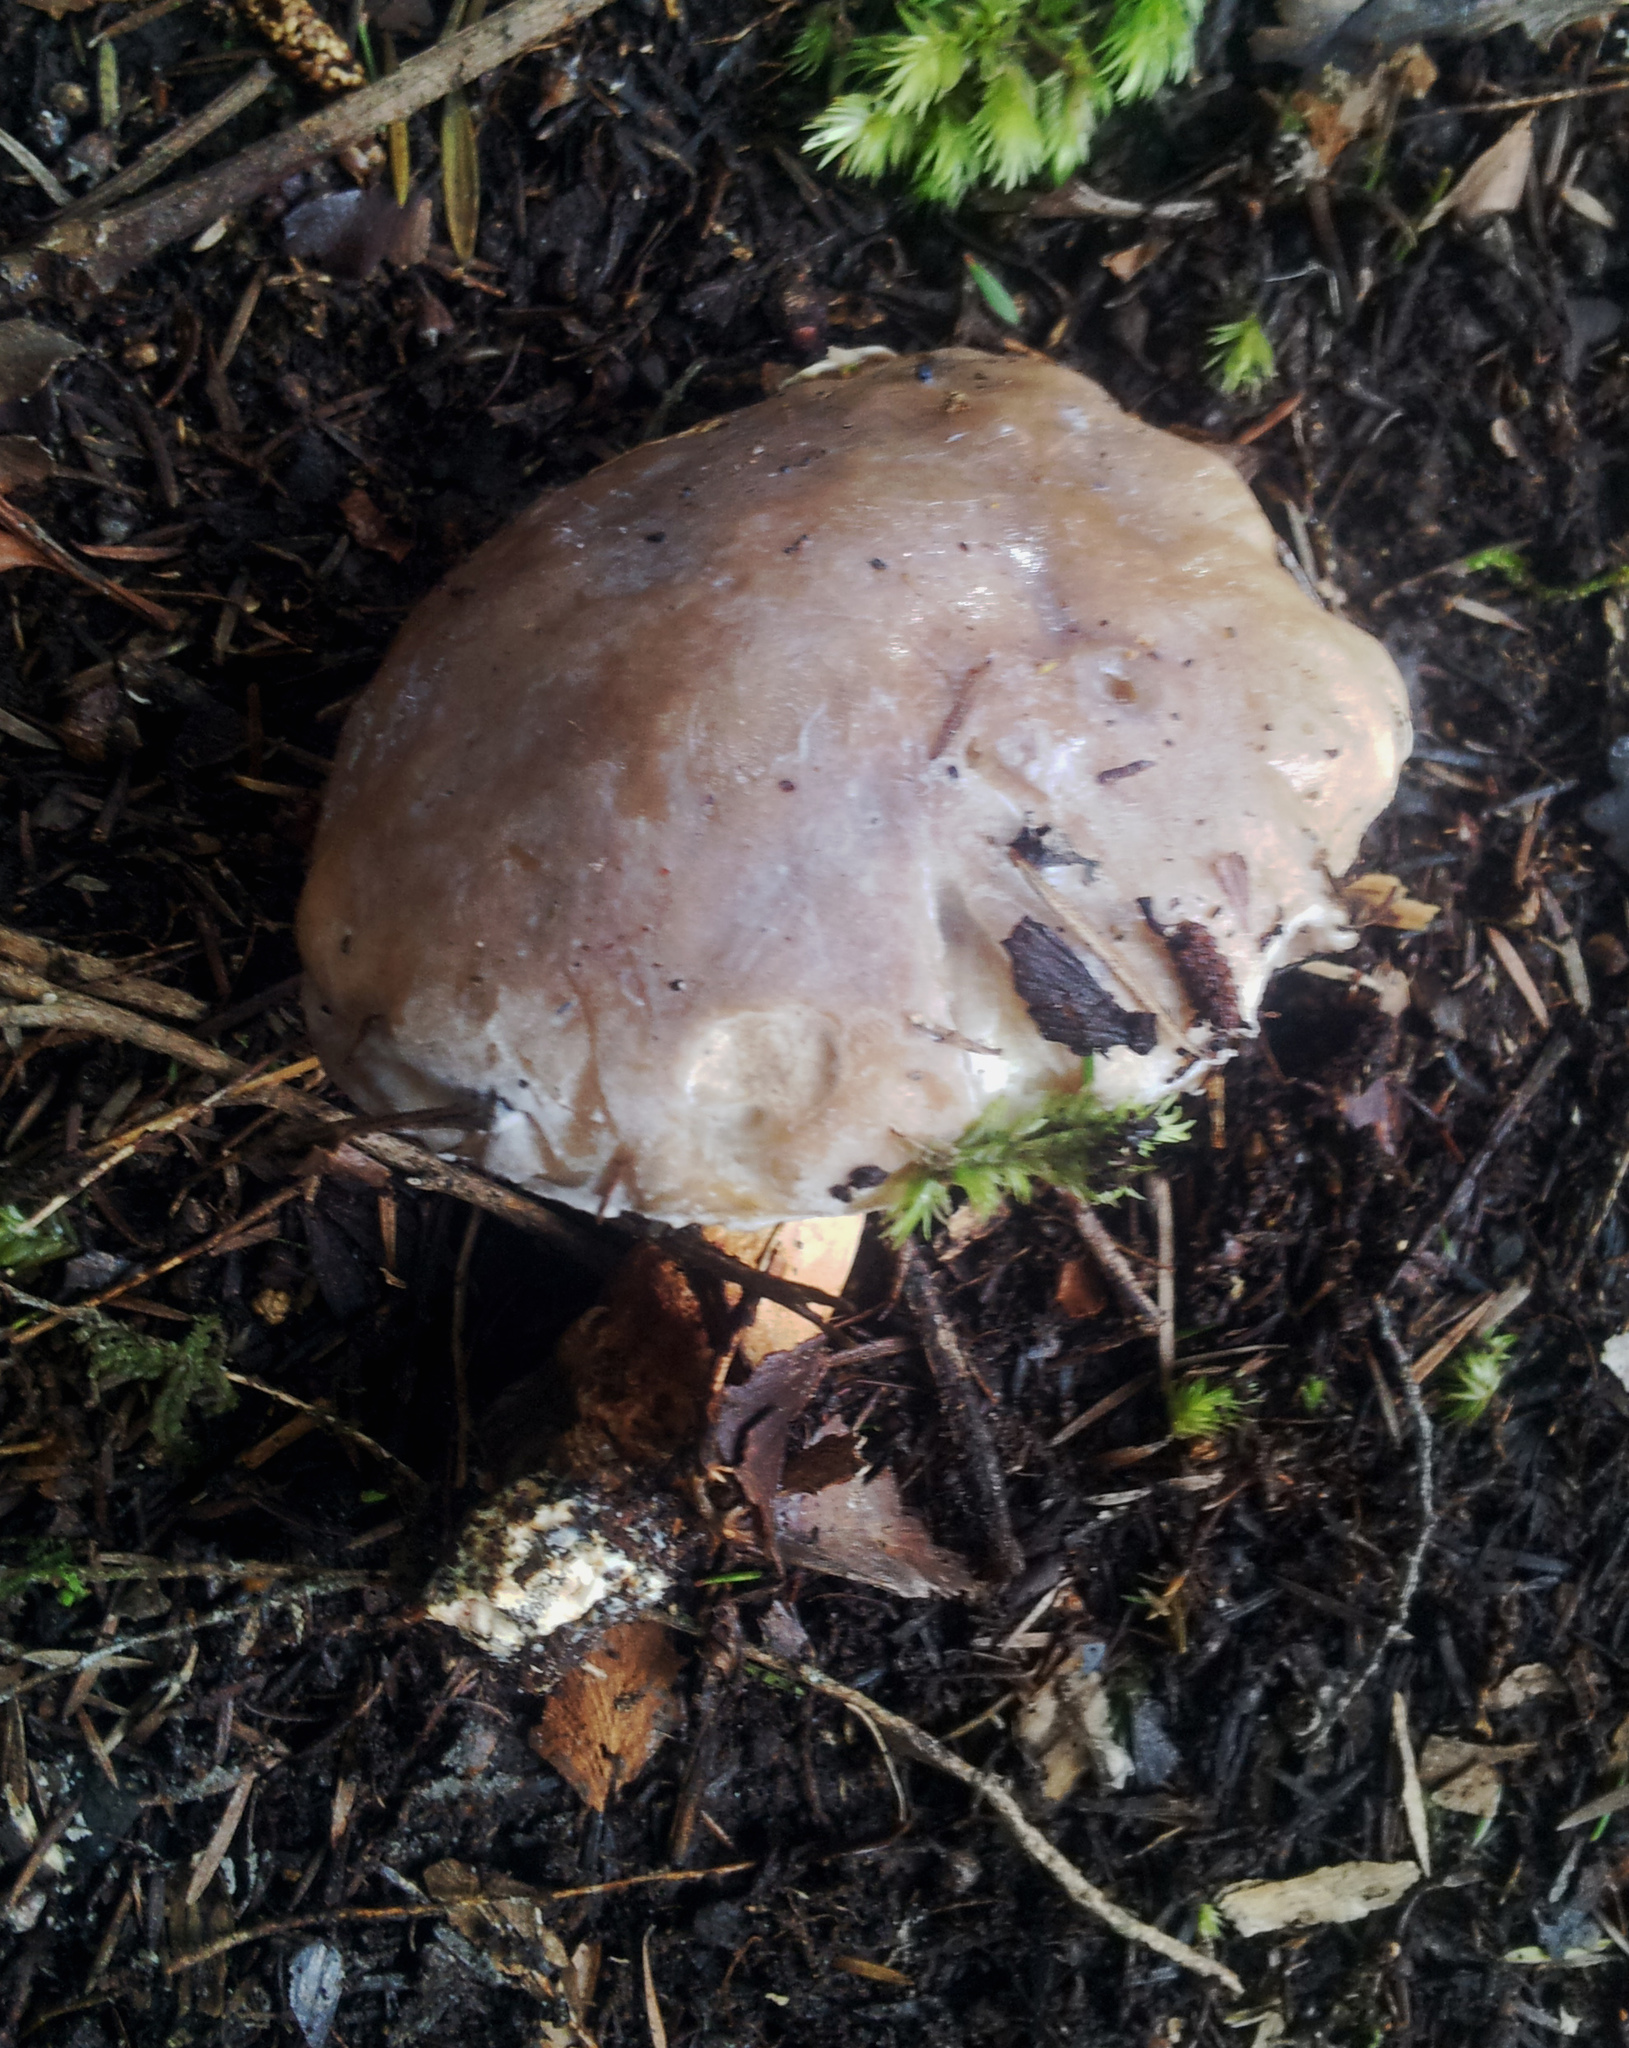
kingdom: Fungi
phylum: Basidiomycota
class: Agaricomycetes
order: Boletales
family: Boletaceae
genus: Fistulinella
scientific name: Fistulinella nivea
